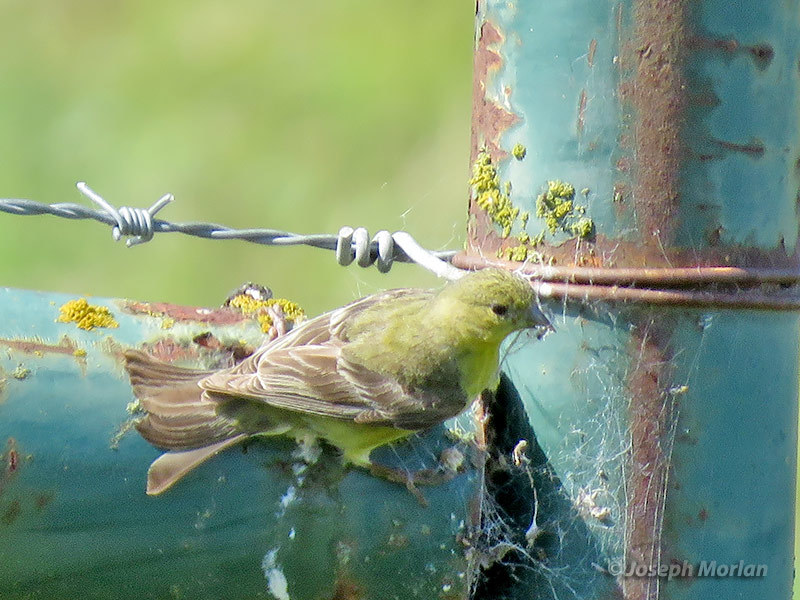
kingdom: Animalia
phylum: Chordata
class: Aves
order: Passeriformes
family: Fringillidae
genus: Spinus
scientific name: Spinus psaltria
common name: Lesser goldfinch
